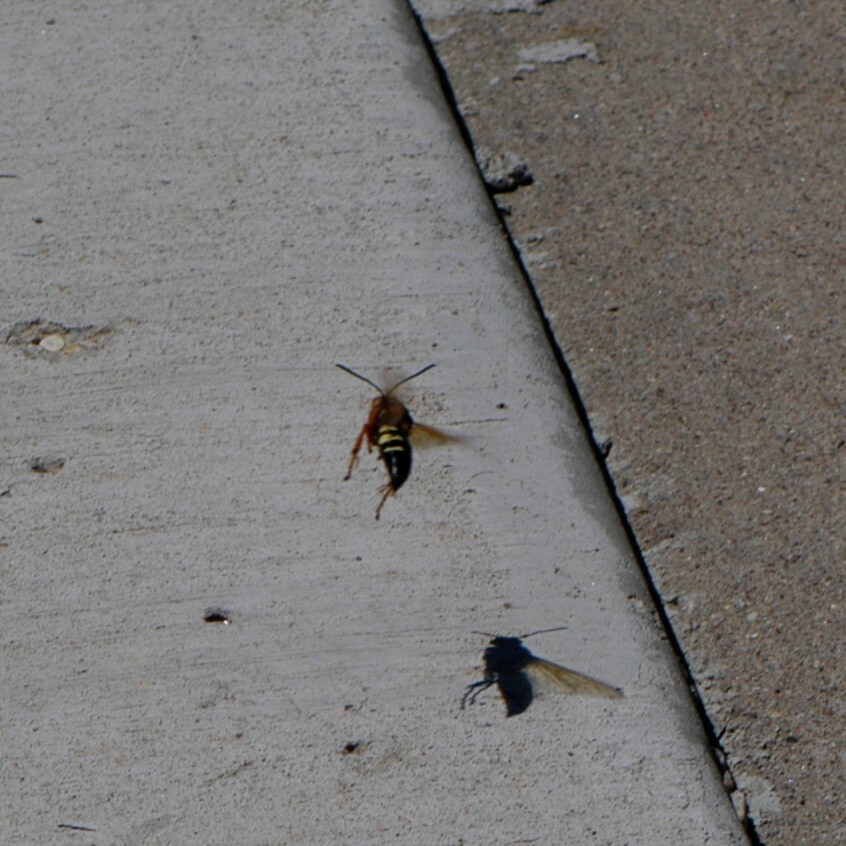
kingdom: Animalia
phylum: Arthropoda
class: Insecta
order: Hymenoptera
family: Crabronidae
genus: Sphecius
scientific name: Sphecius speciosus
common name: Cicada killer
